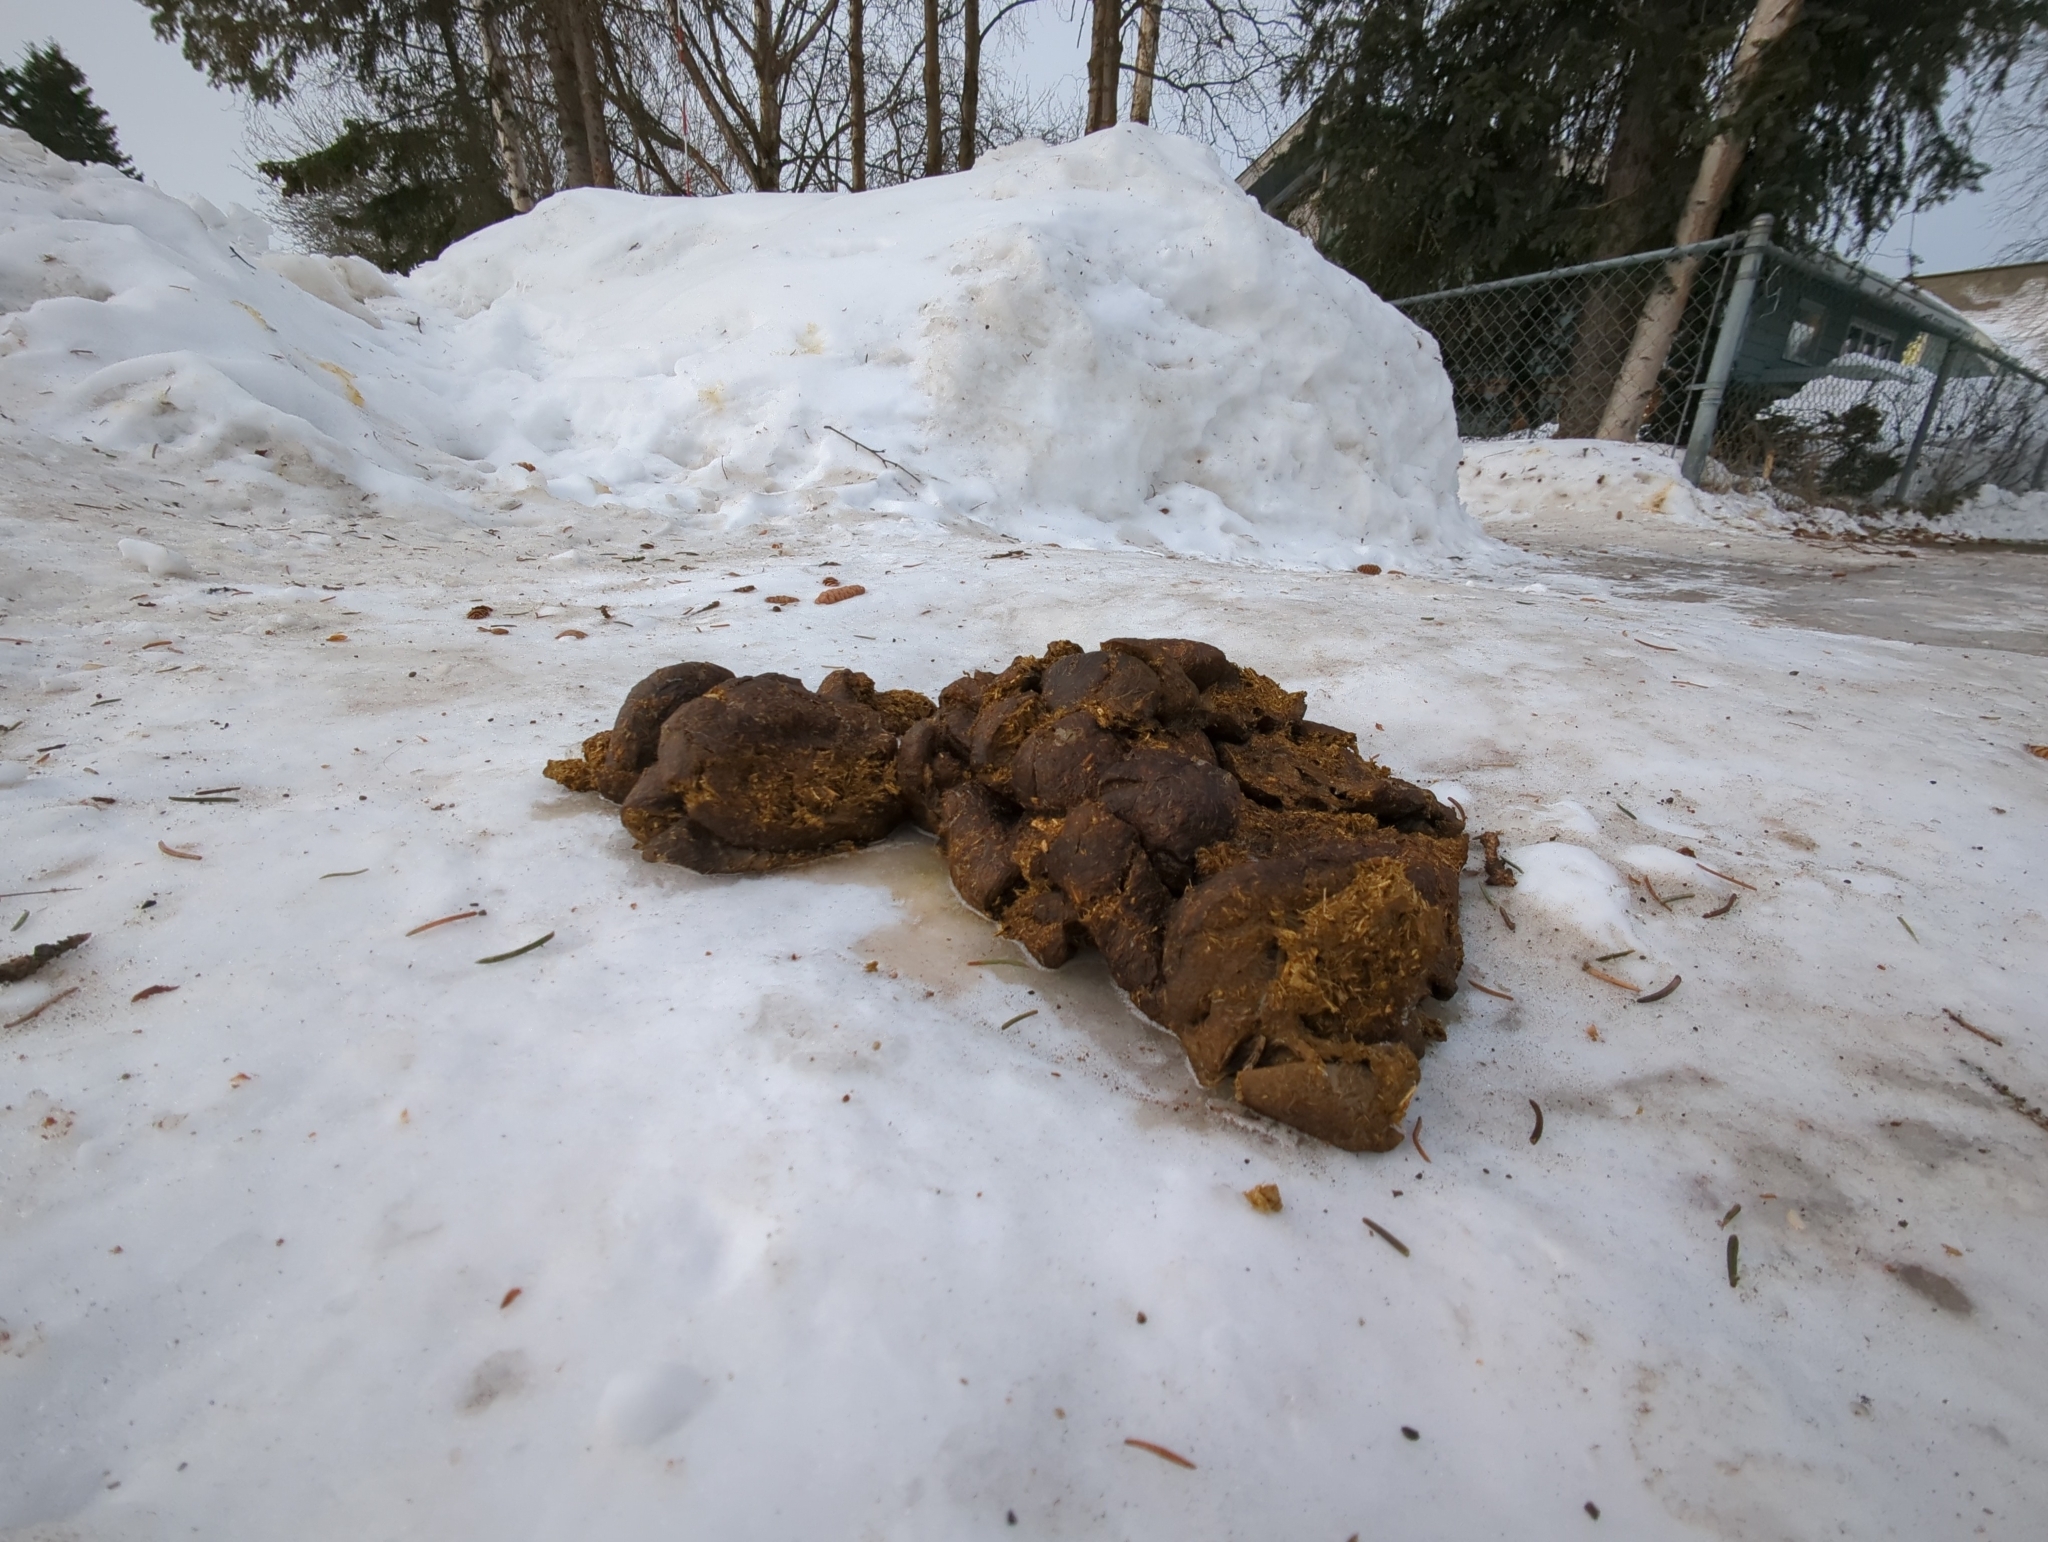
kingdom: Animalia
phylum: Chordata
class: Mammalia
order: Artiodactyla
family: Cervidae
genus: Alces
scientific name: Alces alces
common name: Moose
